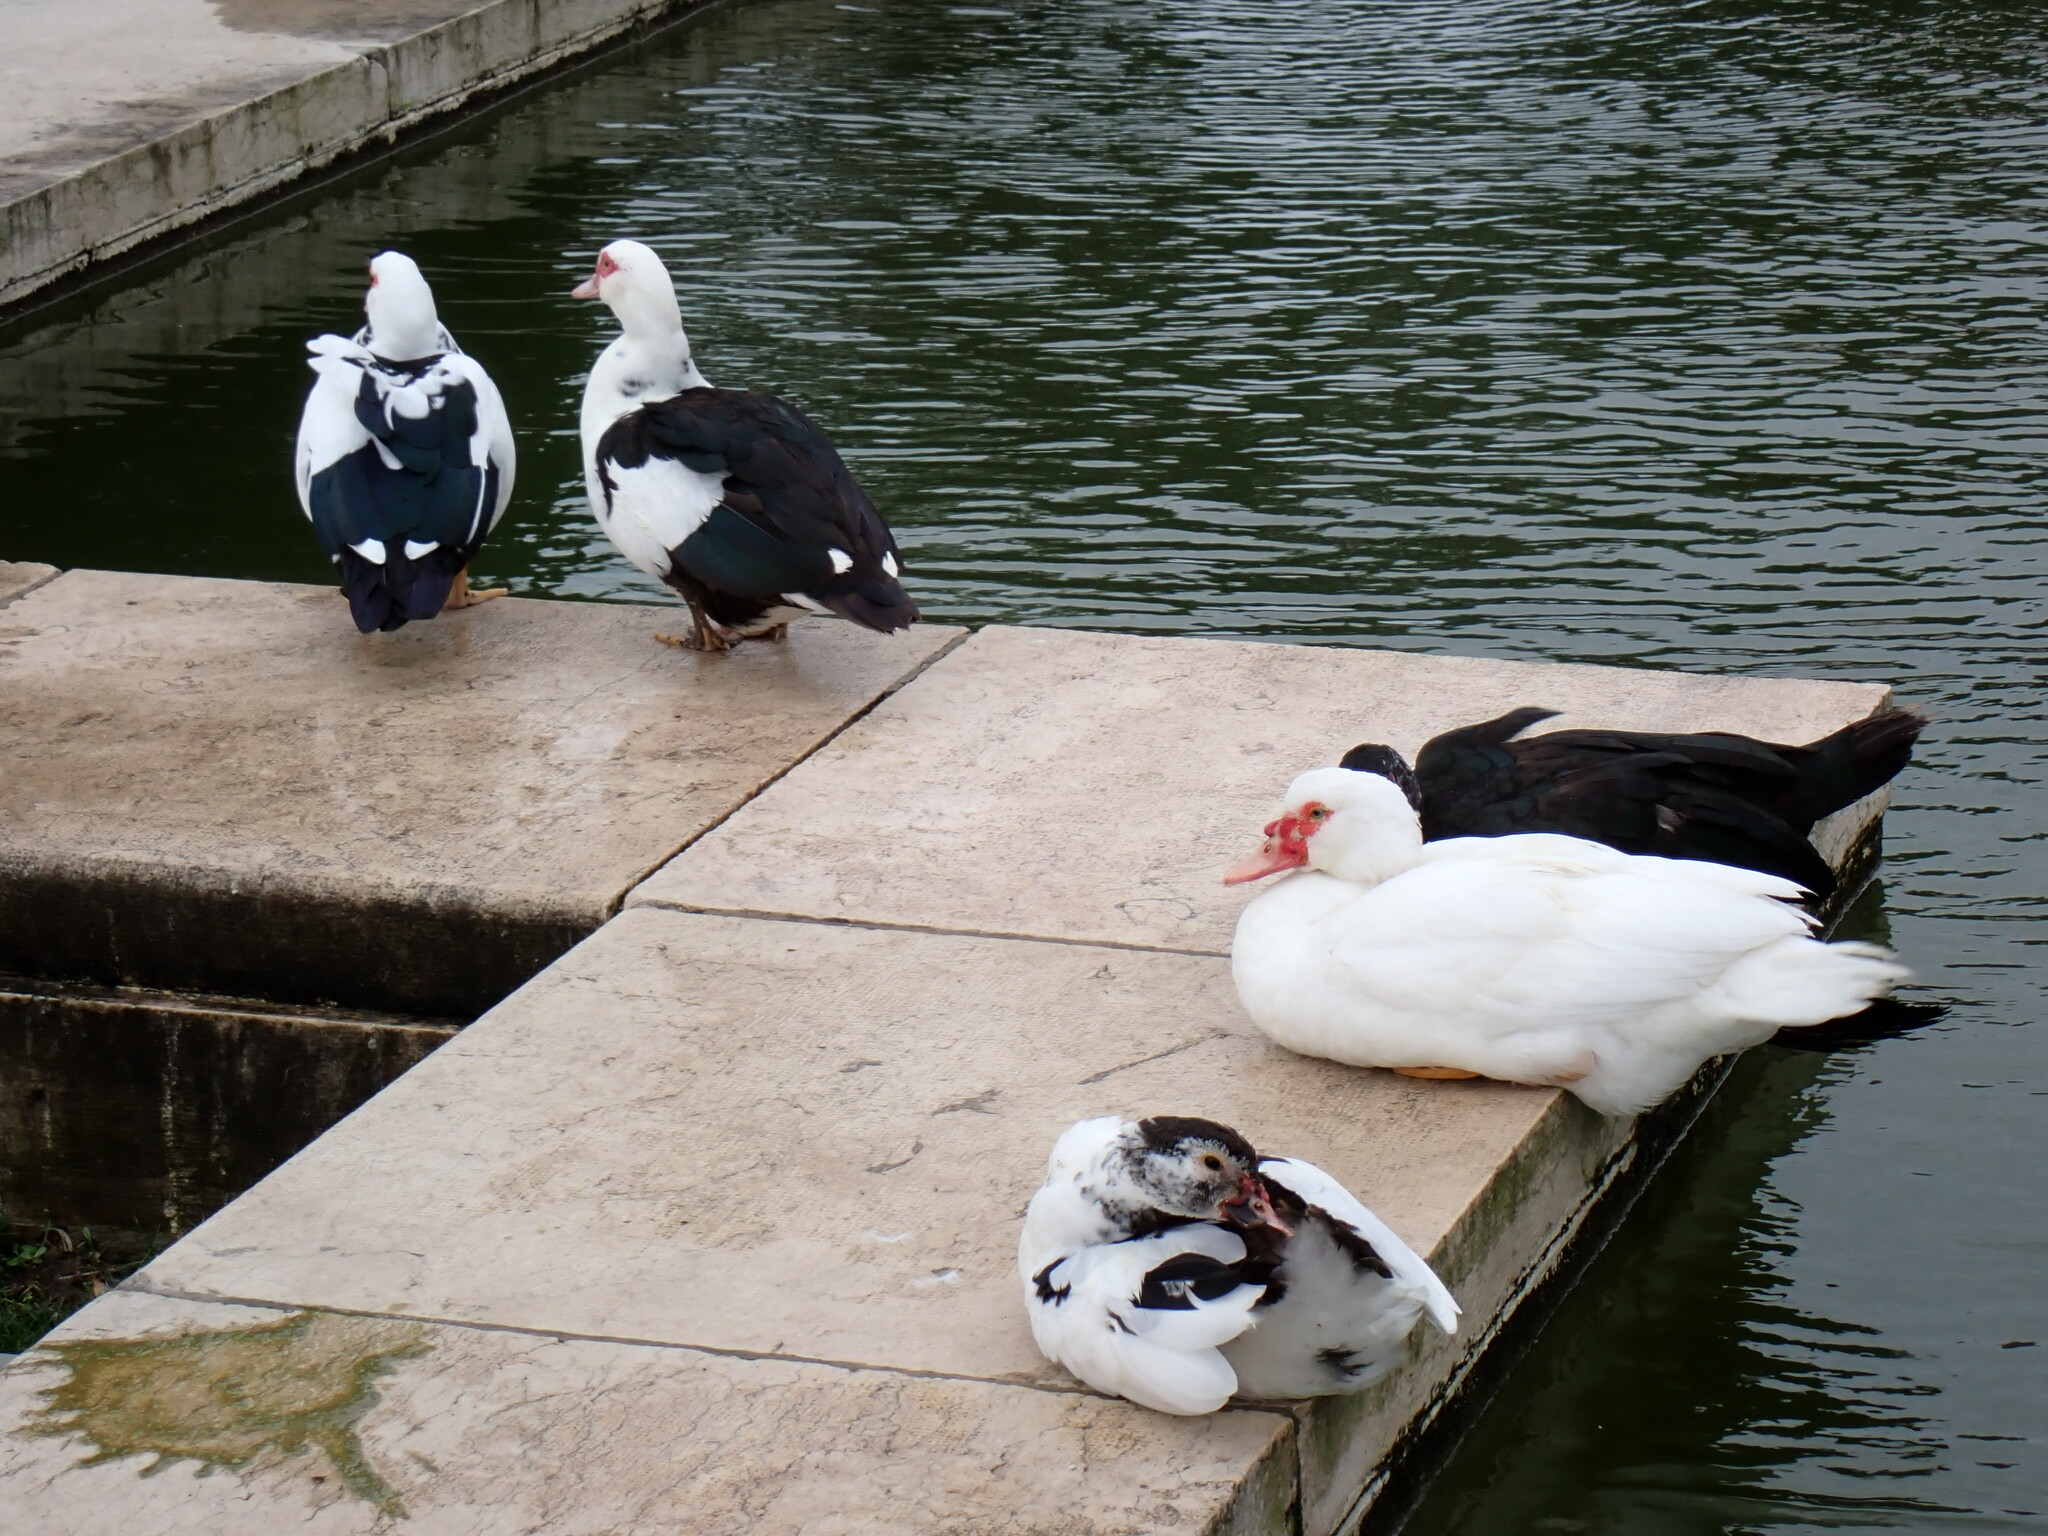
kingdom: Animalia
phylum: Chordata
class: Aves
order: Anseriformes
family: Anatidae
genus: Cairina
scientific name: Cairina moschata
